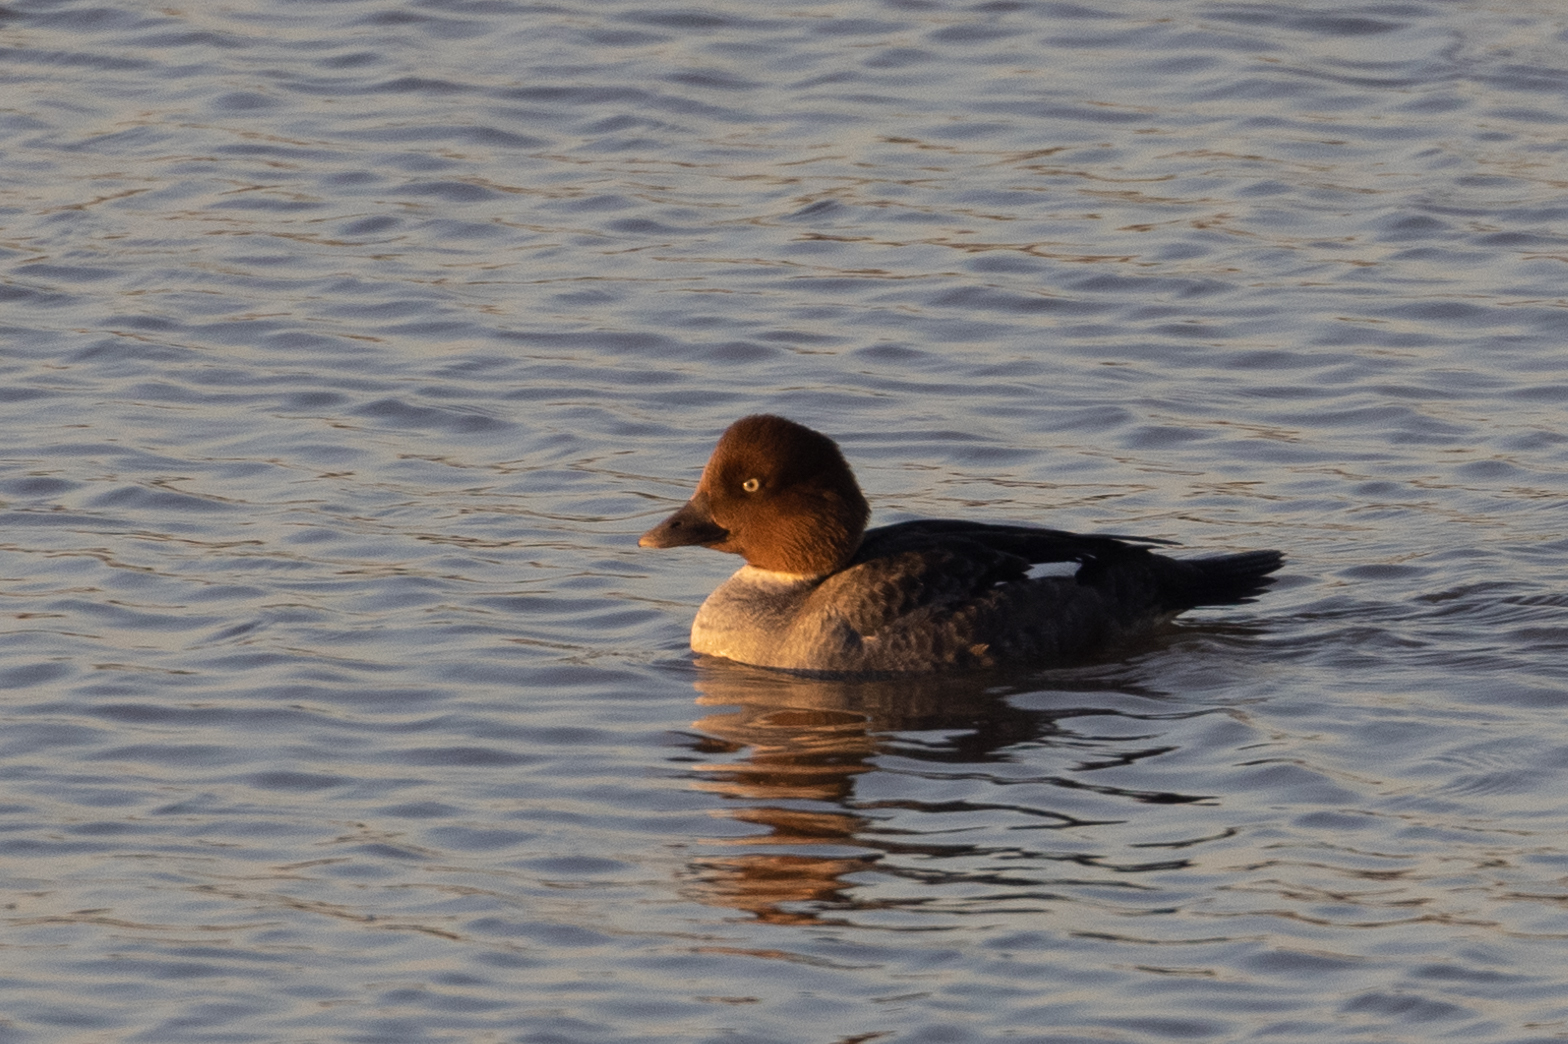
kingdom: Animalia
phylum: Chordata
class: Aves
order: Anseriformes
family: Anatidae
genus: Bucephala
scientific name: Bucephala clangula
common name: Common goldeneye
